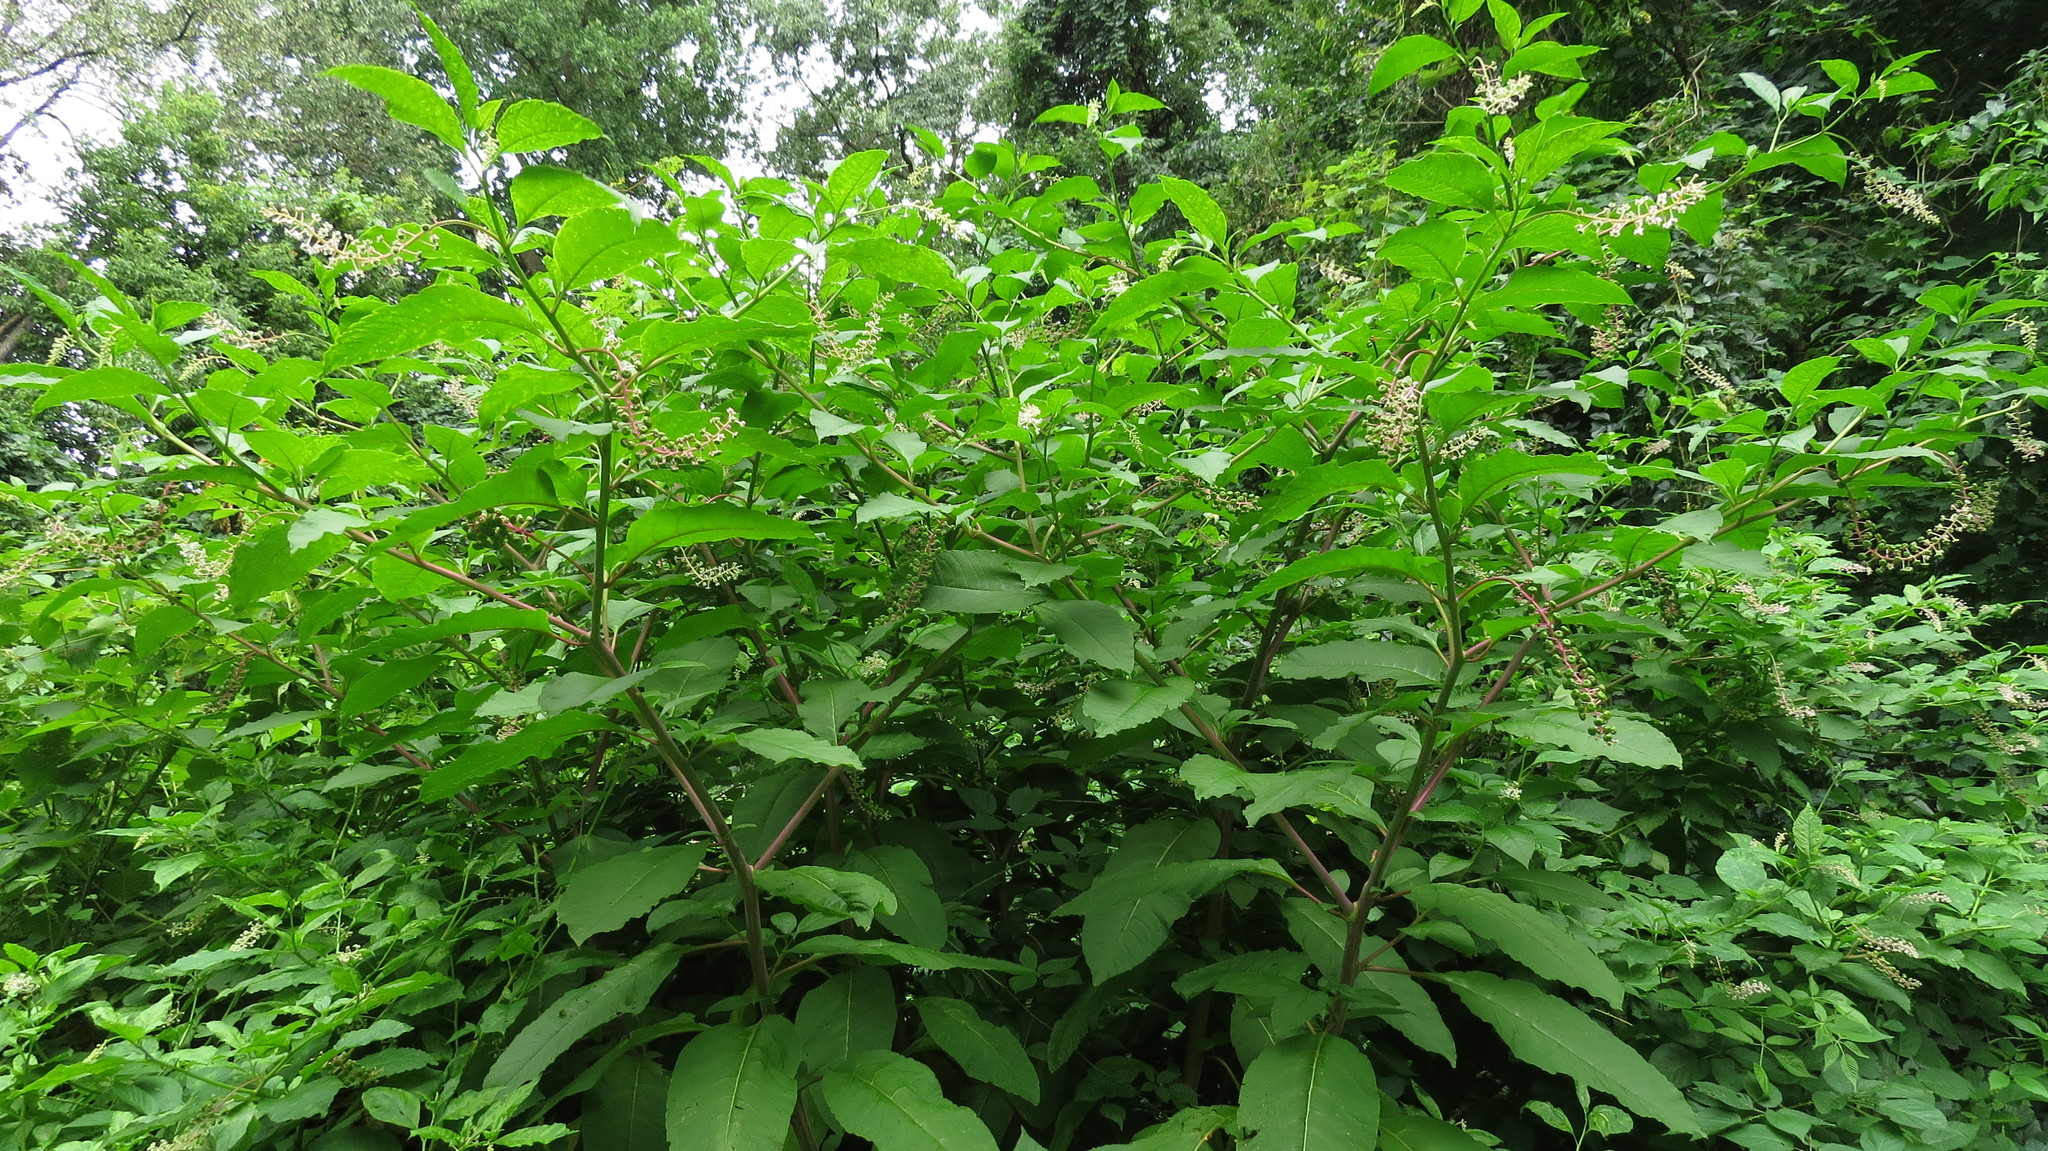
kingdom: Plantae
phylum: Tracheophyta
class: Magnoliopsida
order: Caryophyllales
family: Phytolaccaceae
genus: Phytolacca
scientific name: Phytolacca americana
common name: American pokeweed
